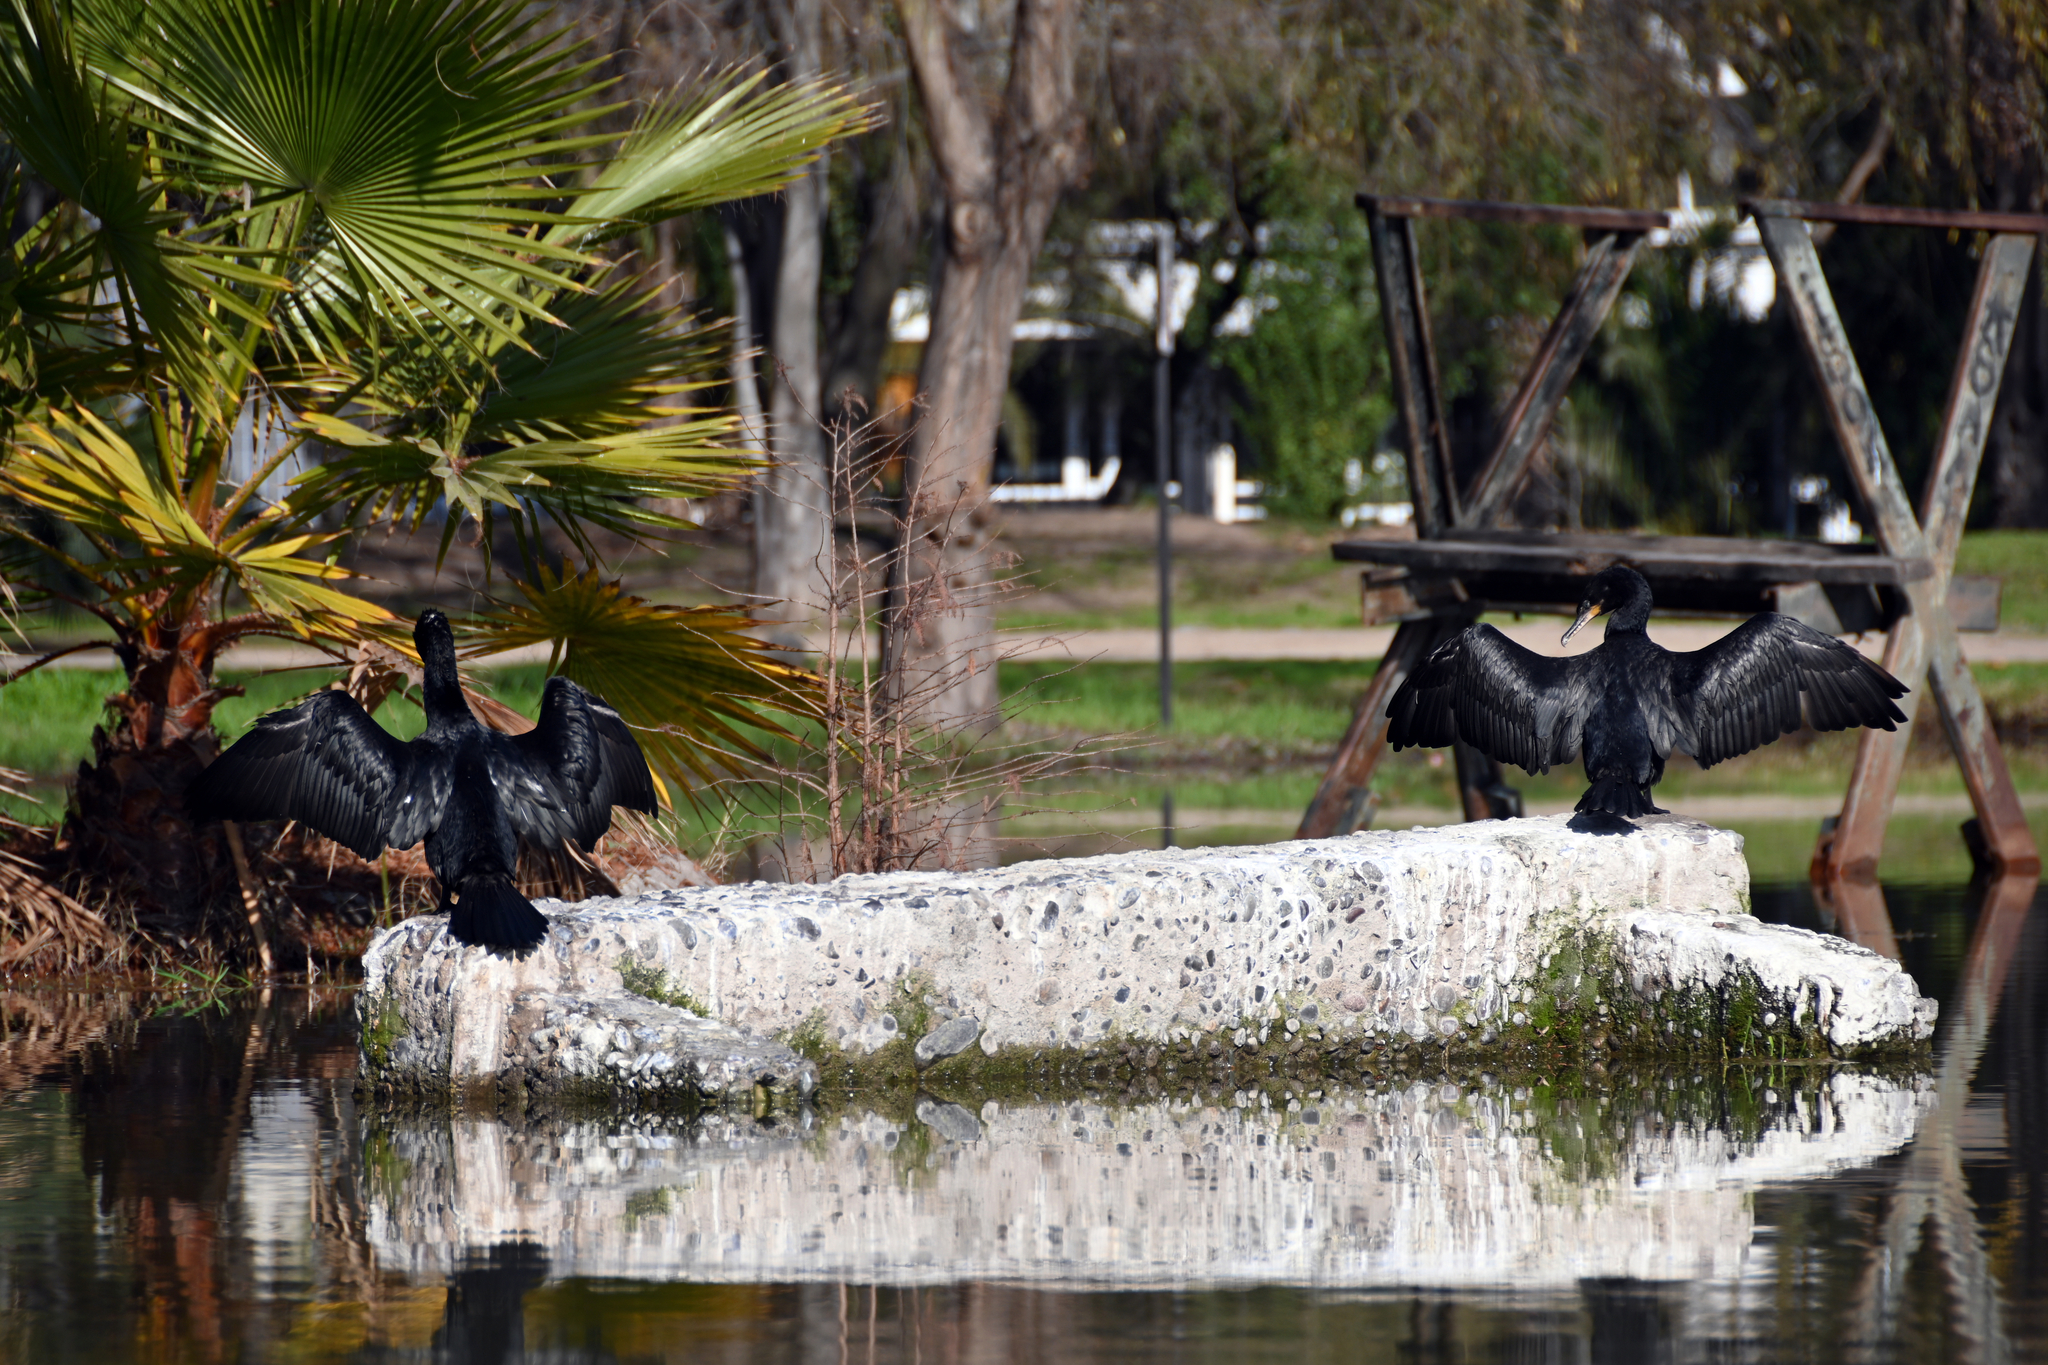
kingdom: Animalia
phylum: Chordata
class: Aves
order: Suliformes
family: Phalacrocoracidae
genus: Phalacrocorax
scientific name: Phalacrocorax brasilianus
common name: Neotropic cormorant
